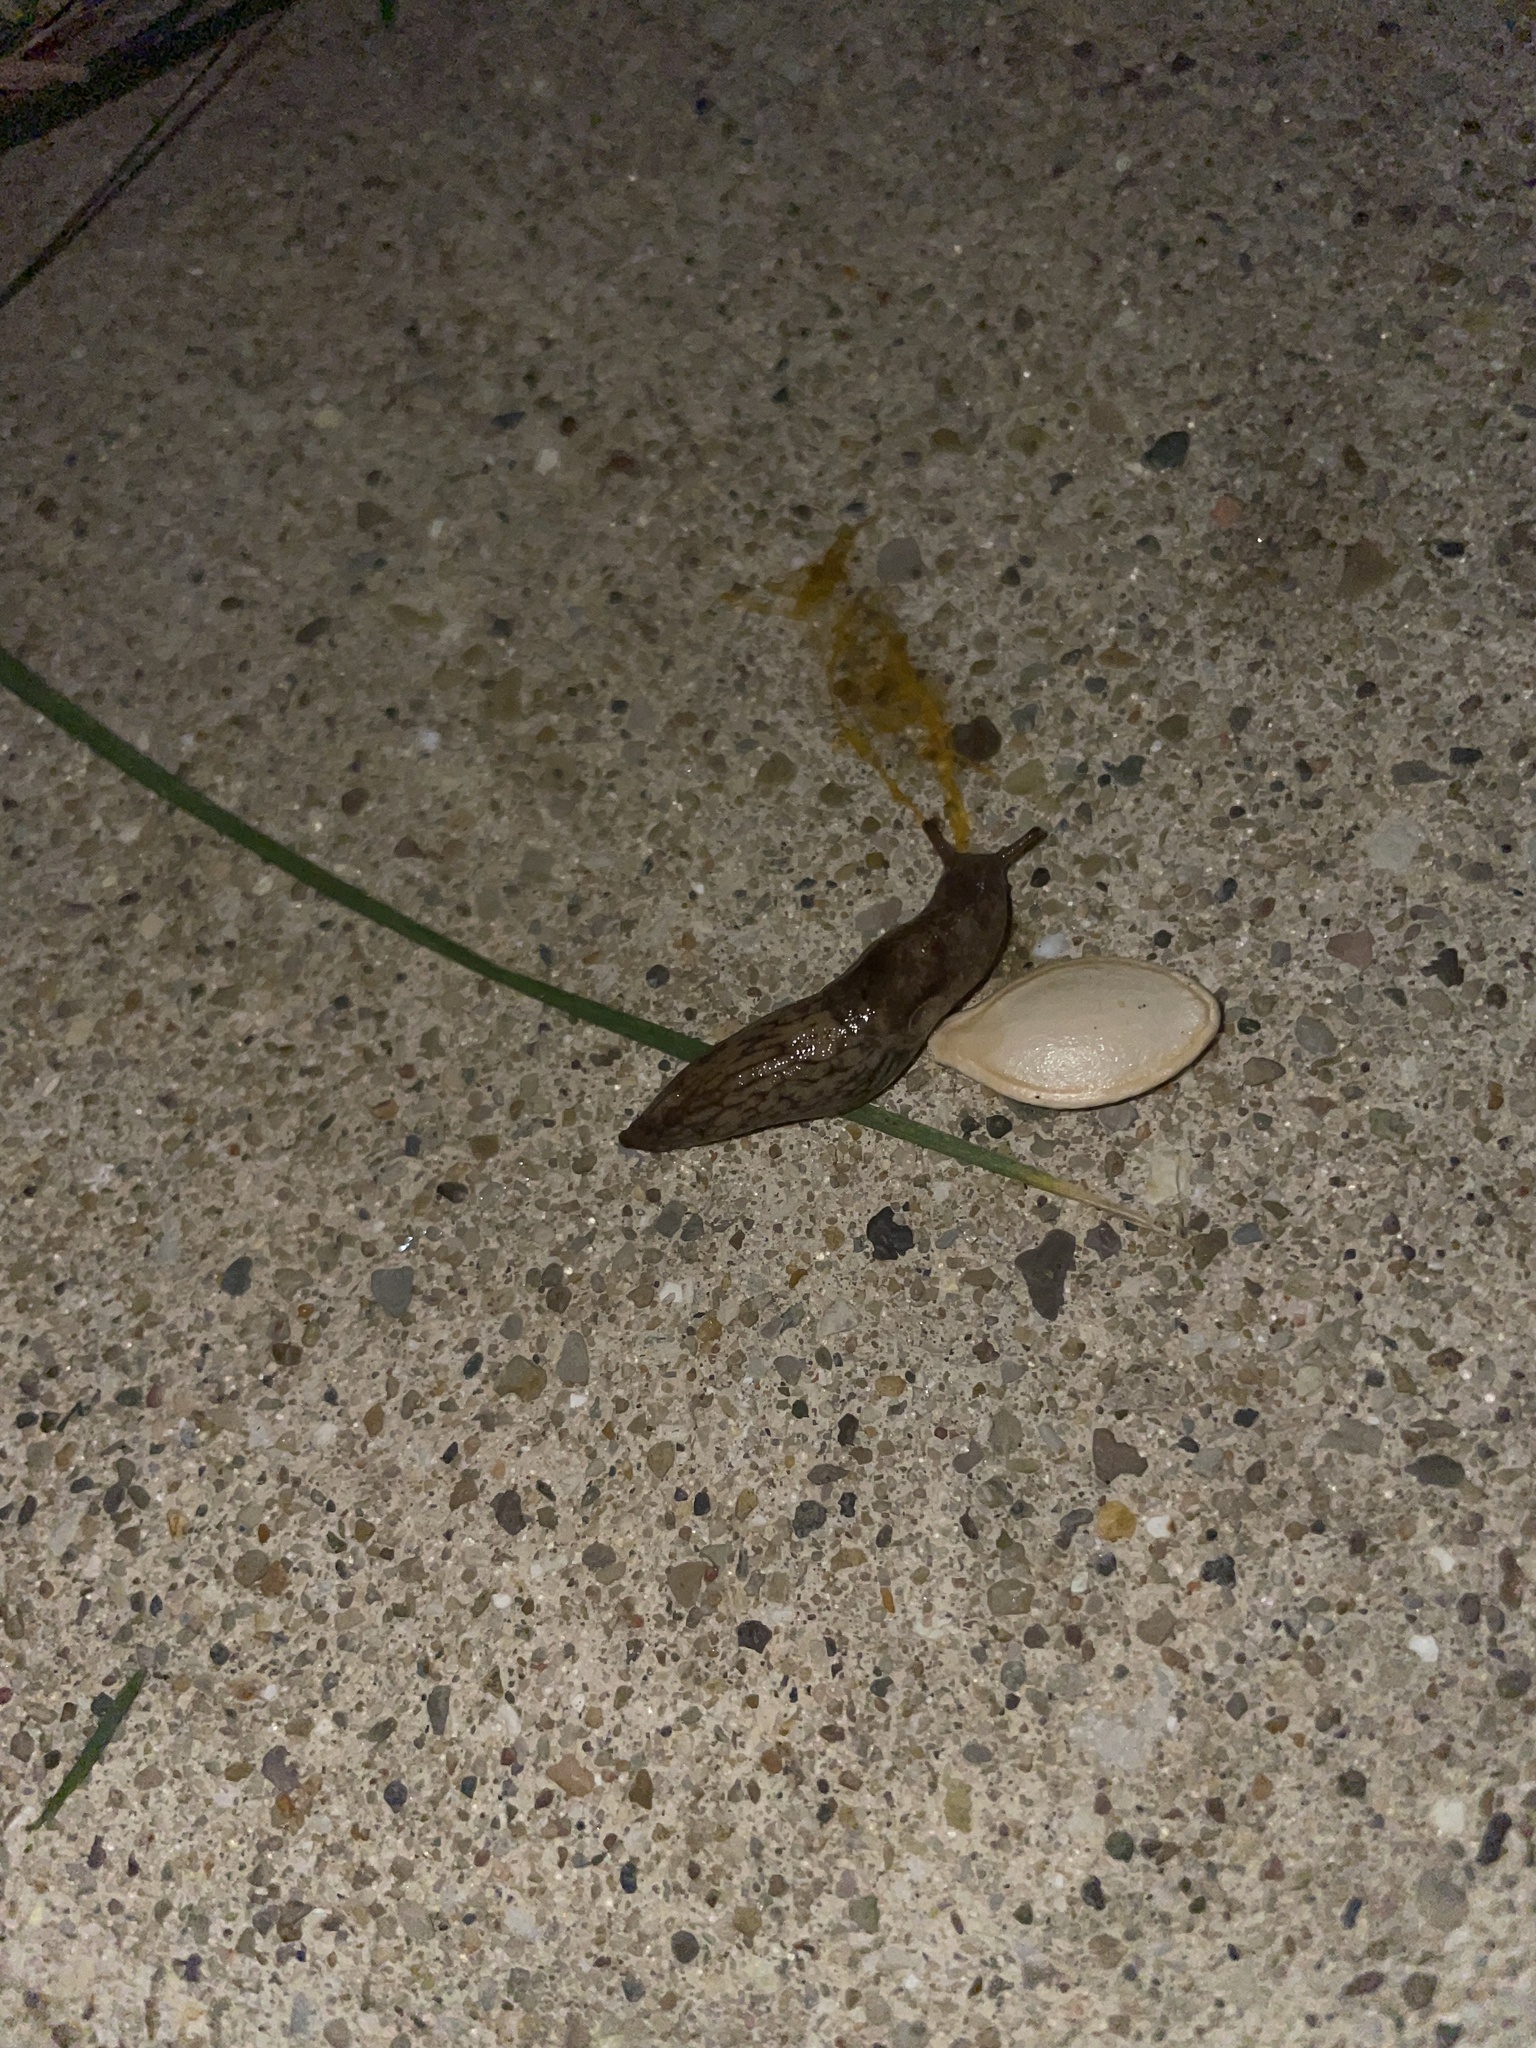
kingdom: Animalia
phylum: Mollusca
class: Gastropoda
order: Stylommatophora
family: Agriolimacidae
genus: Deroceras
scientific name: Deroceras laeve
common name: Marsh slug
